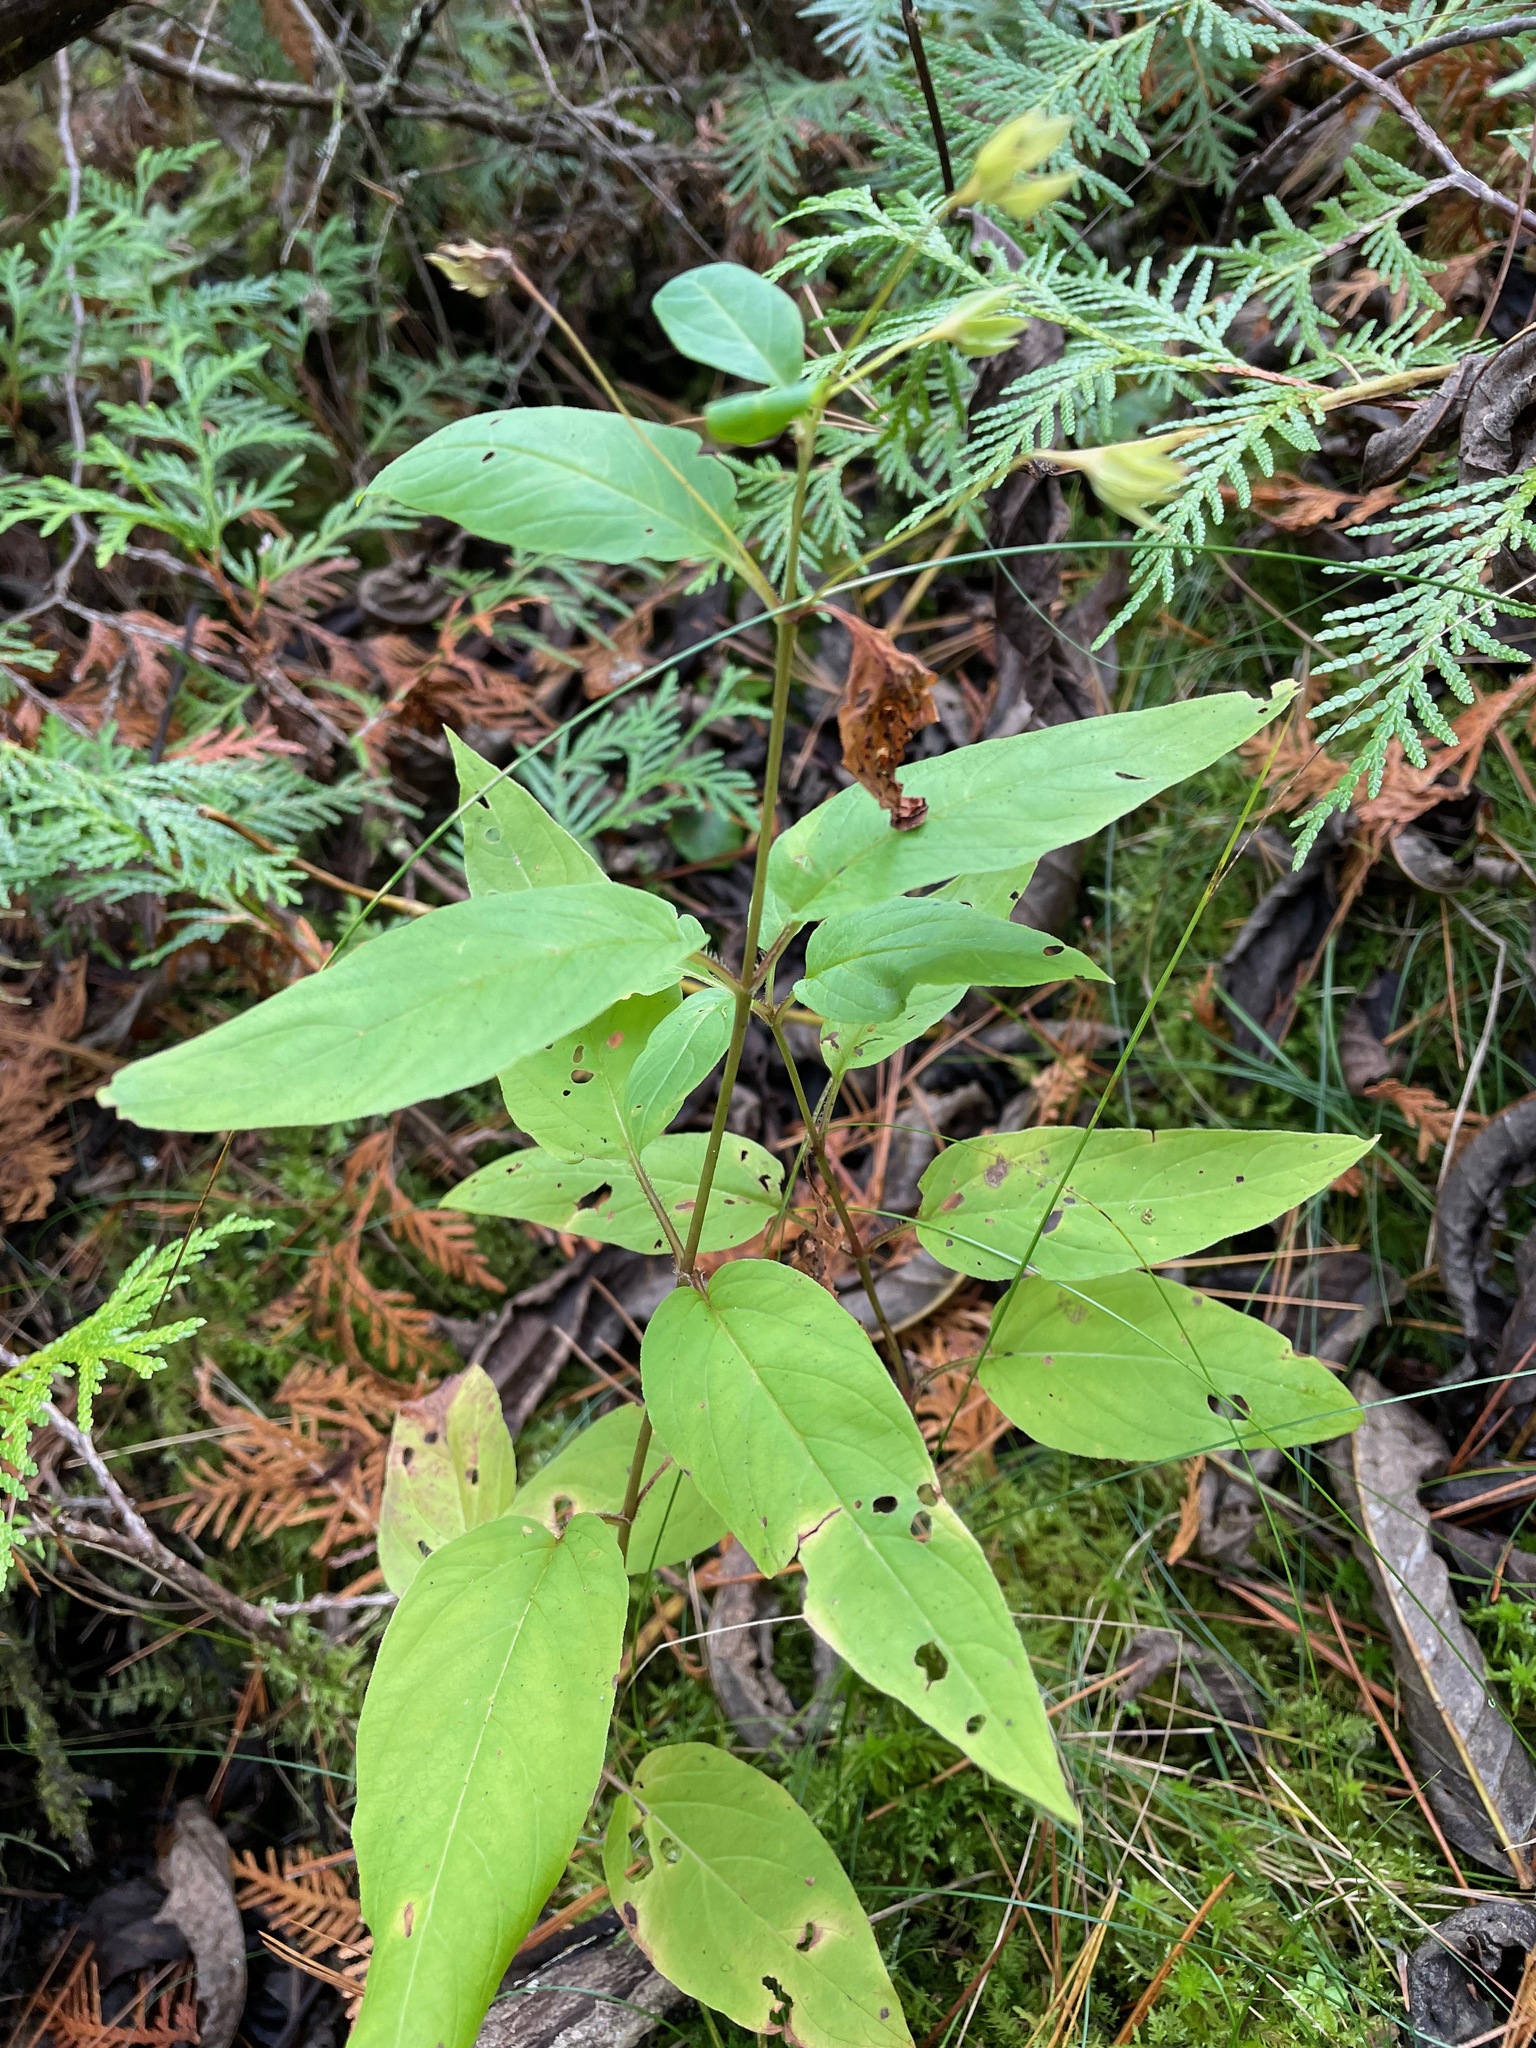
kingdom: Plantae
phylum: Tracheophyta
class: Magnoliopsida
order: Ericales
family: Primulaceae
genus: Lysimachia
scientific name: Lysimachia ciliata
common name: Fringed loosestrife
